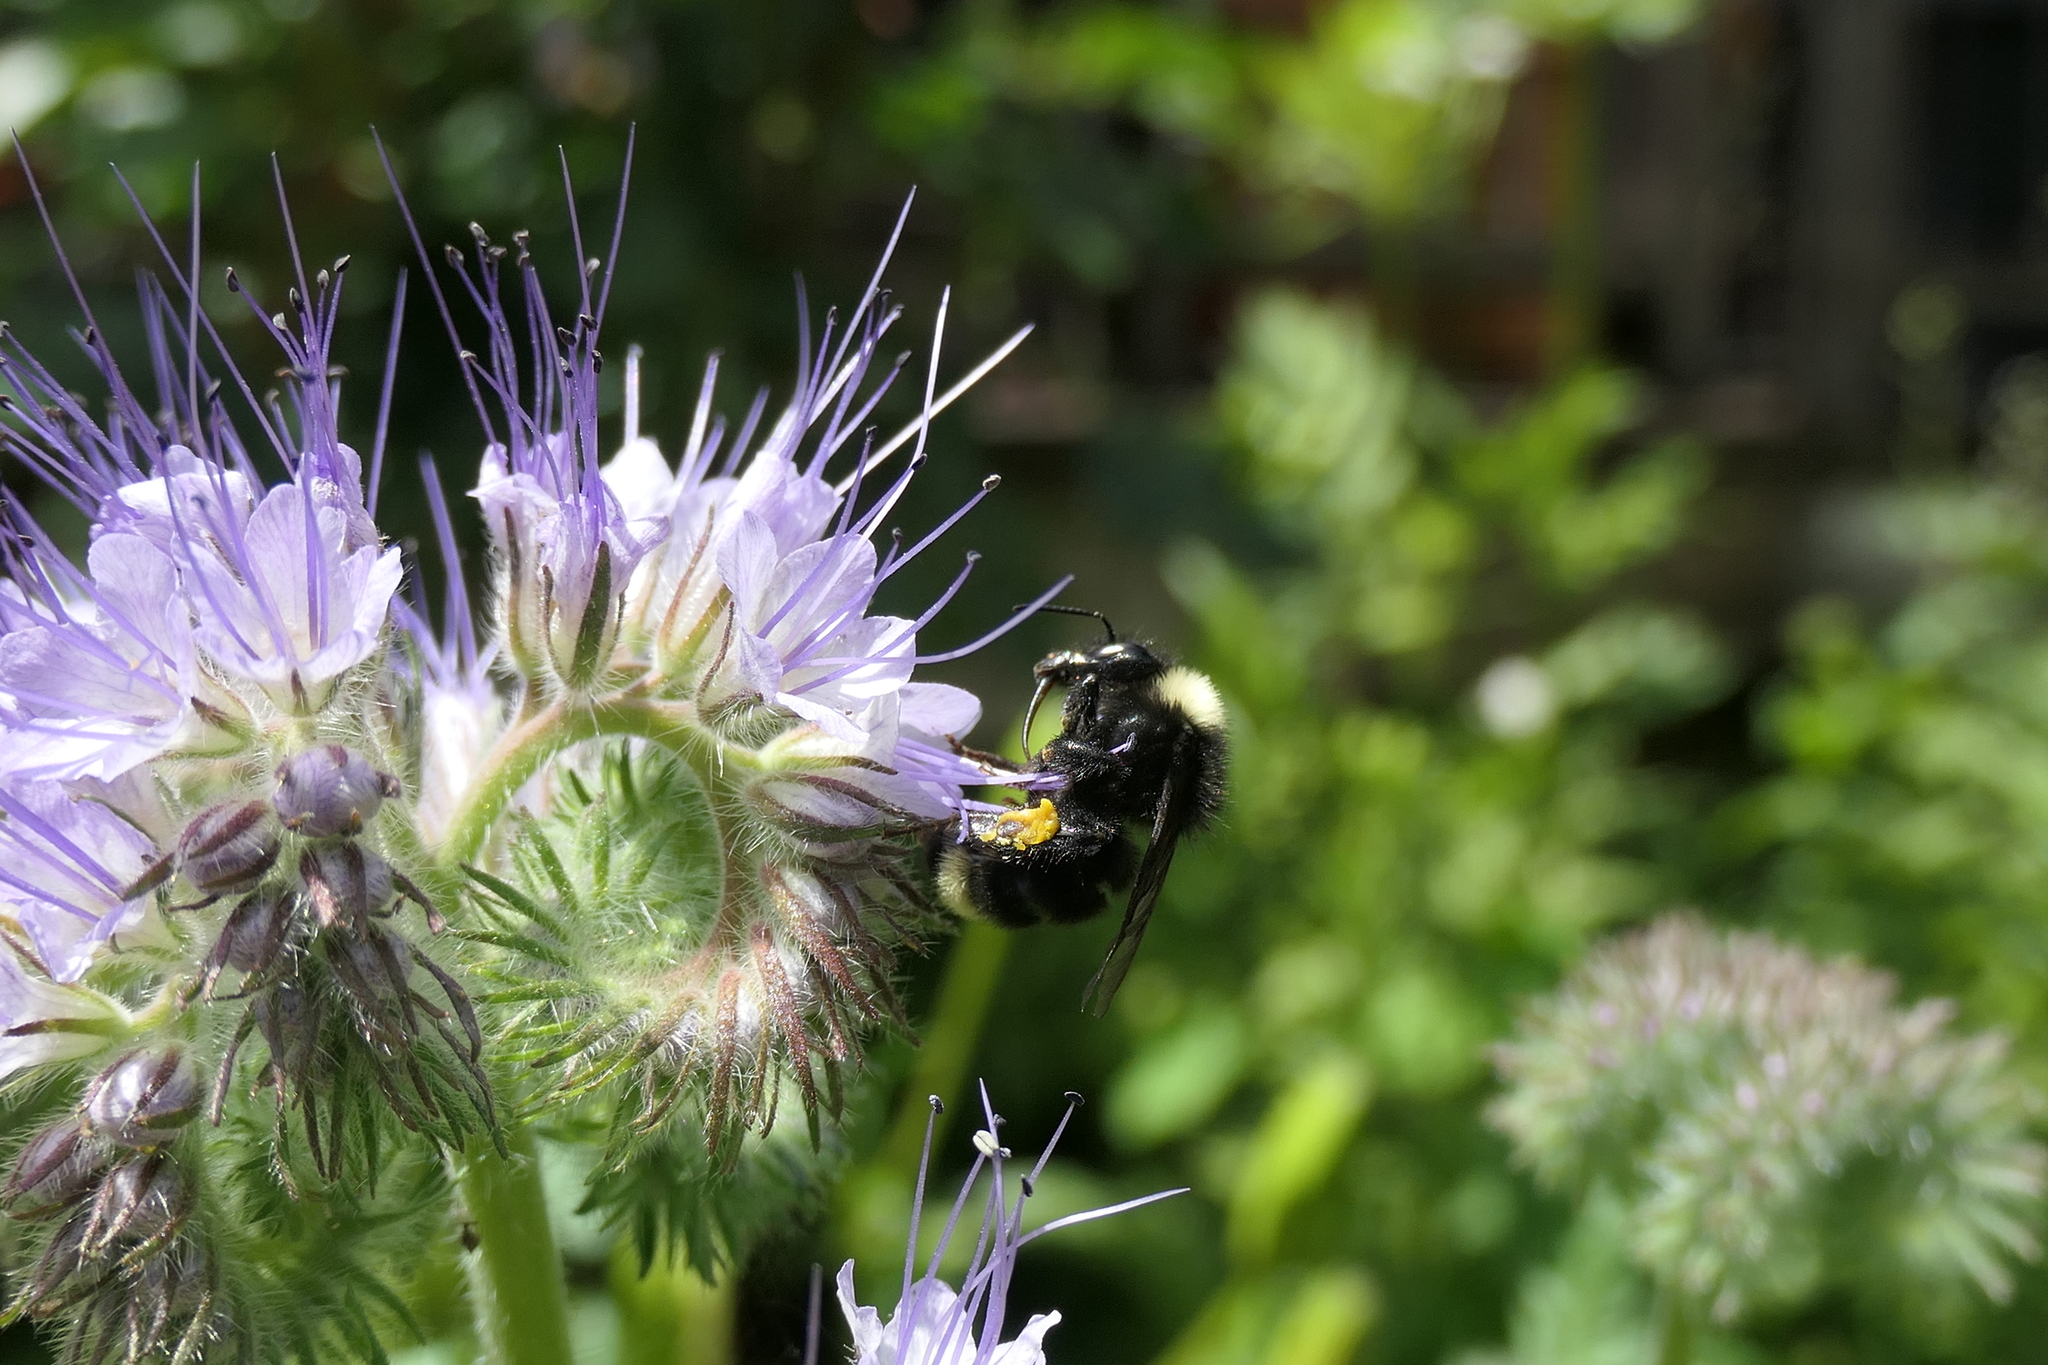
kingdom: Animalia
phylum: Arthropoda
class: Insecta
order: Hymenoptera
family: Apidae
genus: Bombus
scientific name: Bombus californicus
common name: California bumble bee
